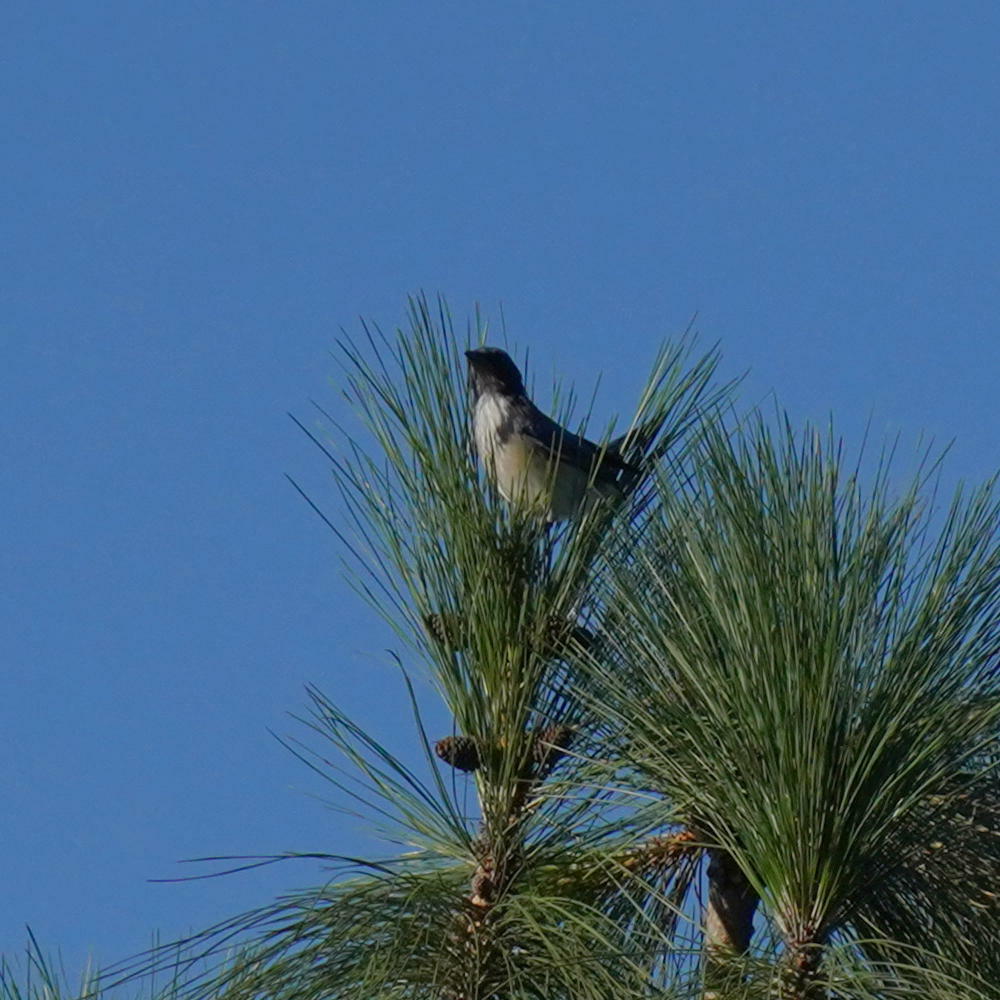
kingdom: Animalia
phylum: Chordata
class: Aves
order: Passeriformes
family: Corvidae
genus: Aphelocoma
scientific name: Aphelocoma californica
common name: California scrub-jay
